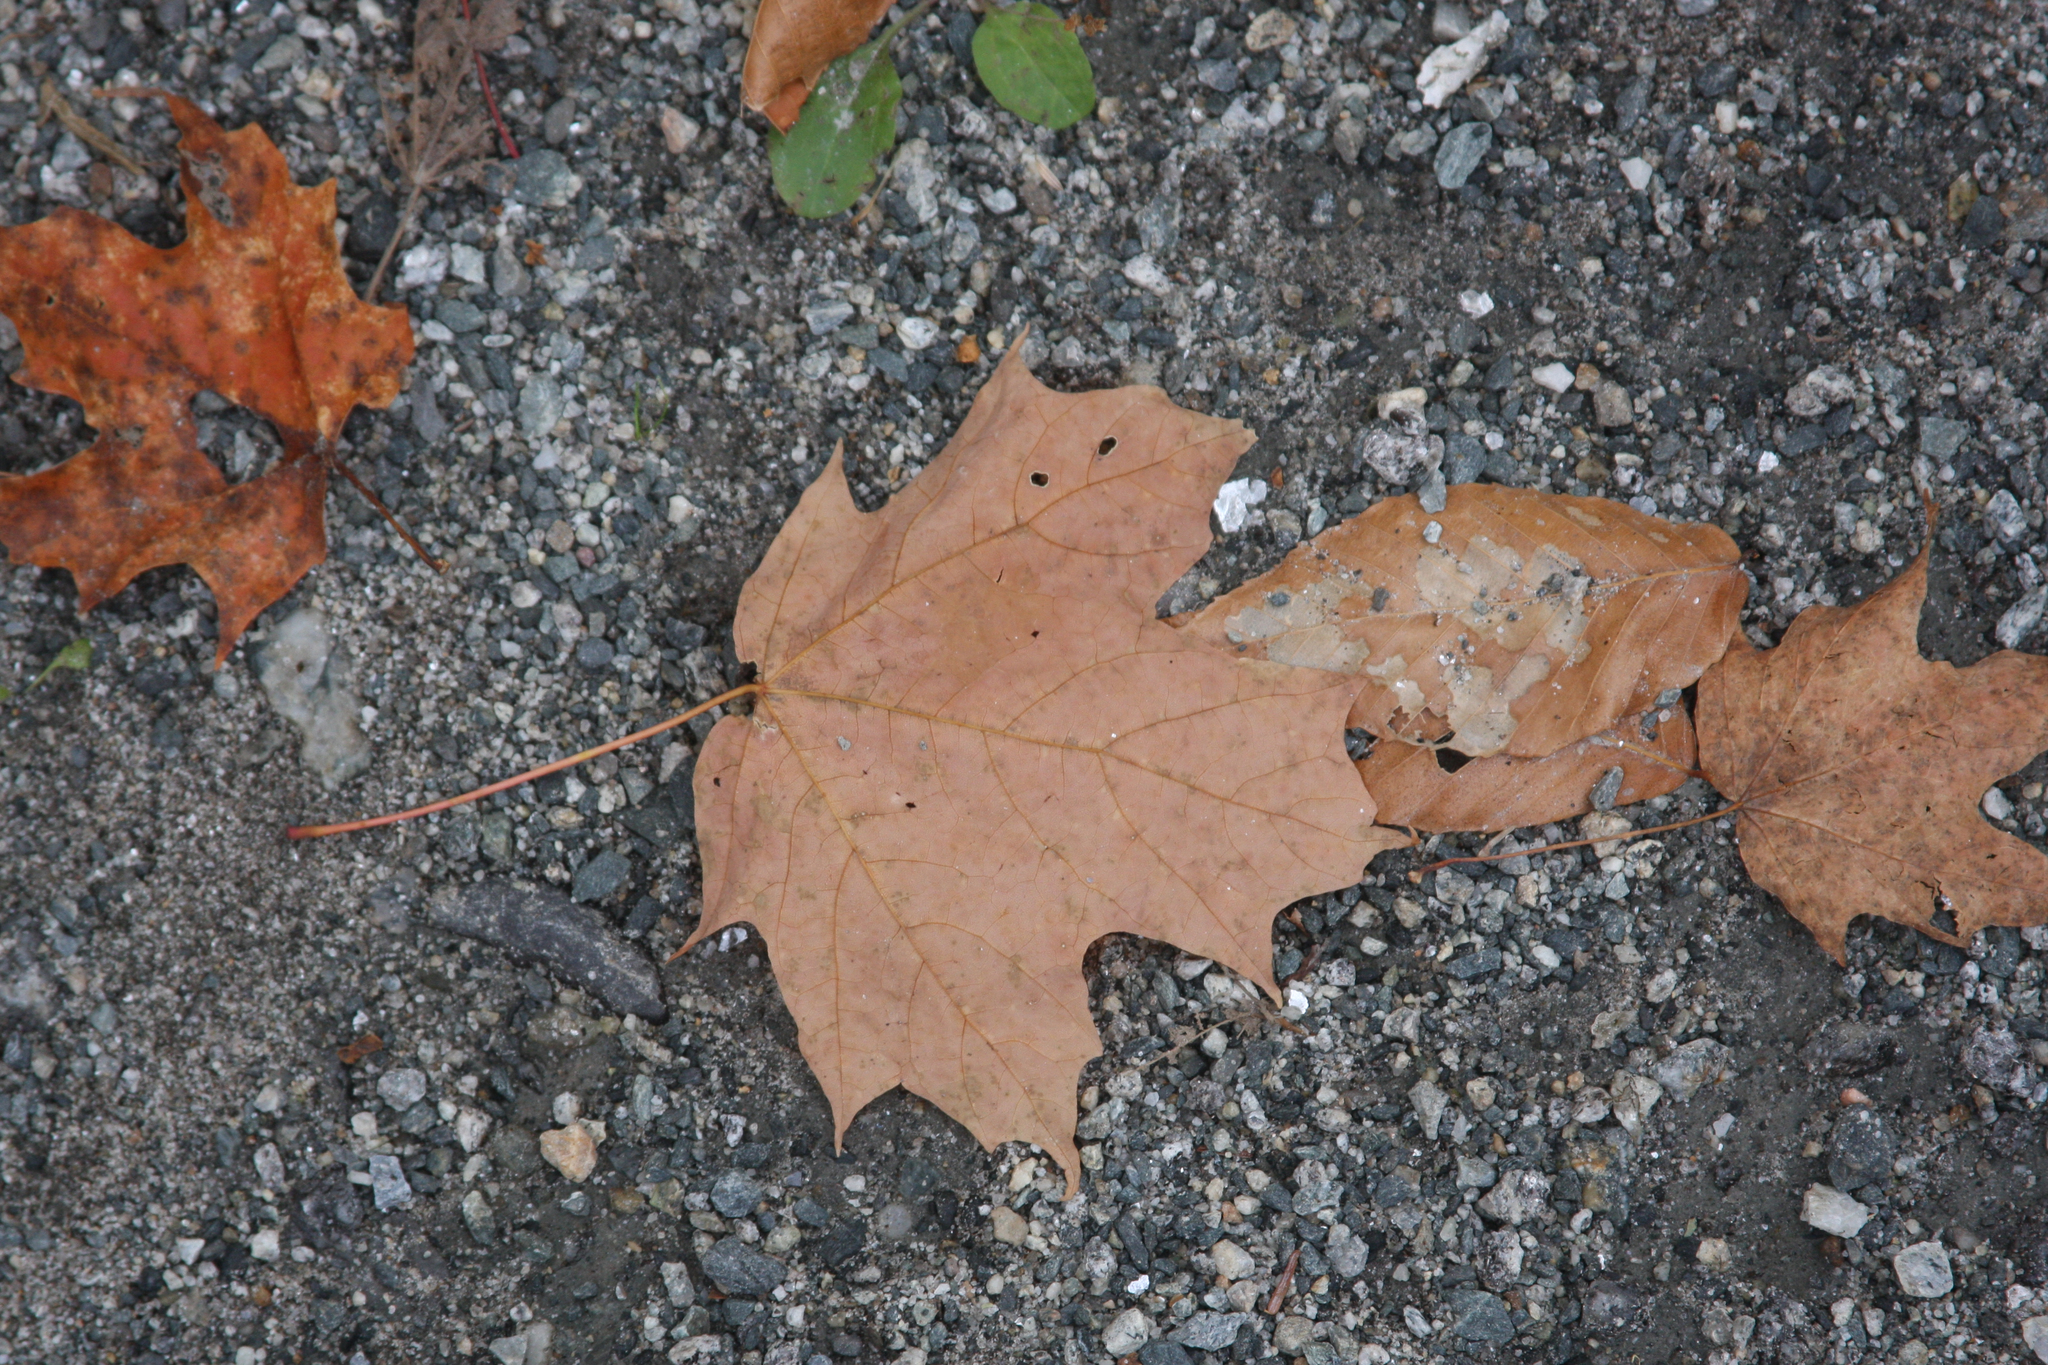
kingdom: Plantae
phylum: Tracheophyta
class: Magnoliopsida
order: Sapindales
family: Sapindaceae
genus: Acer
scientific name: Acer saccharum
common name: Sugar maple
